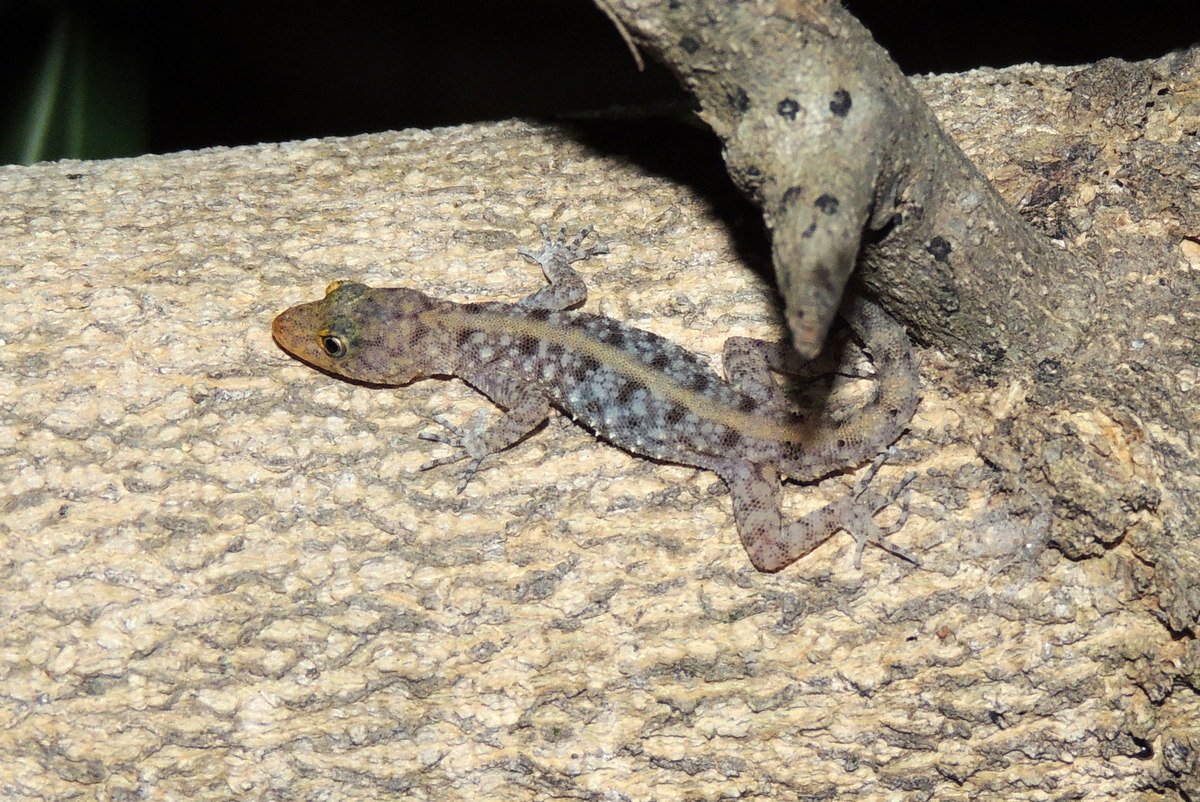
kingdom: Animalia
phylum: Chordata
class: Squamata
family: Gekkonidae
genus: Cnemaspis
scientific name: Cnemaspis mysoriensis
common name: Mysore day gecko
